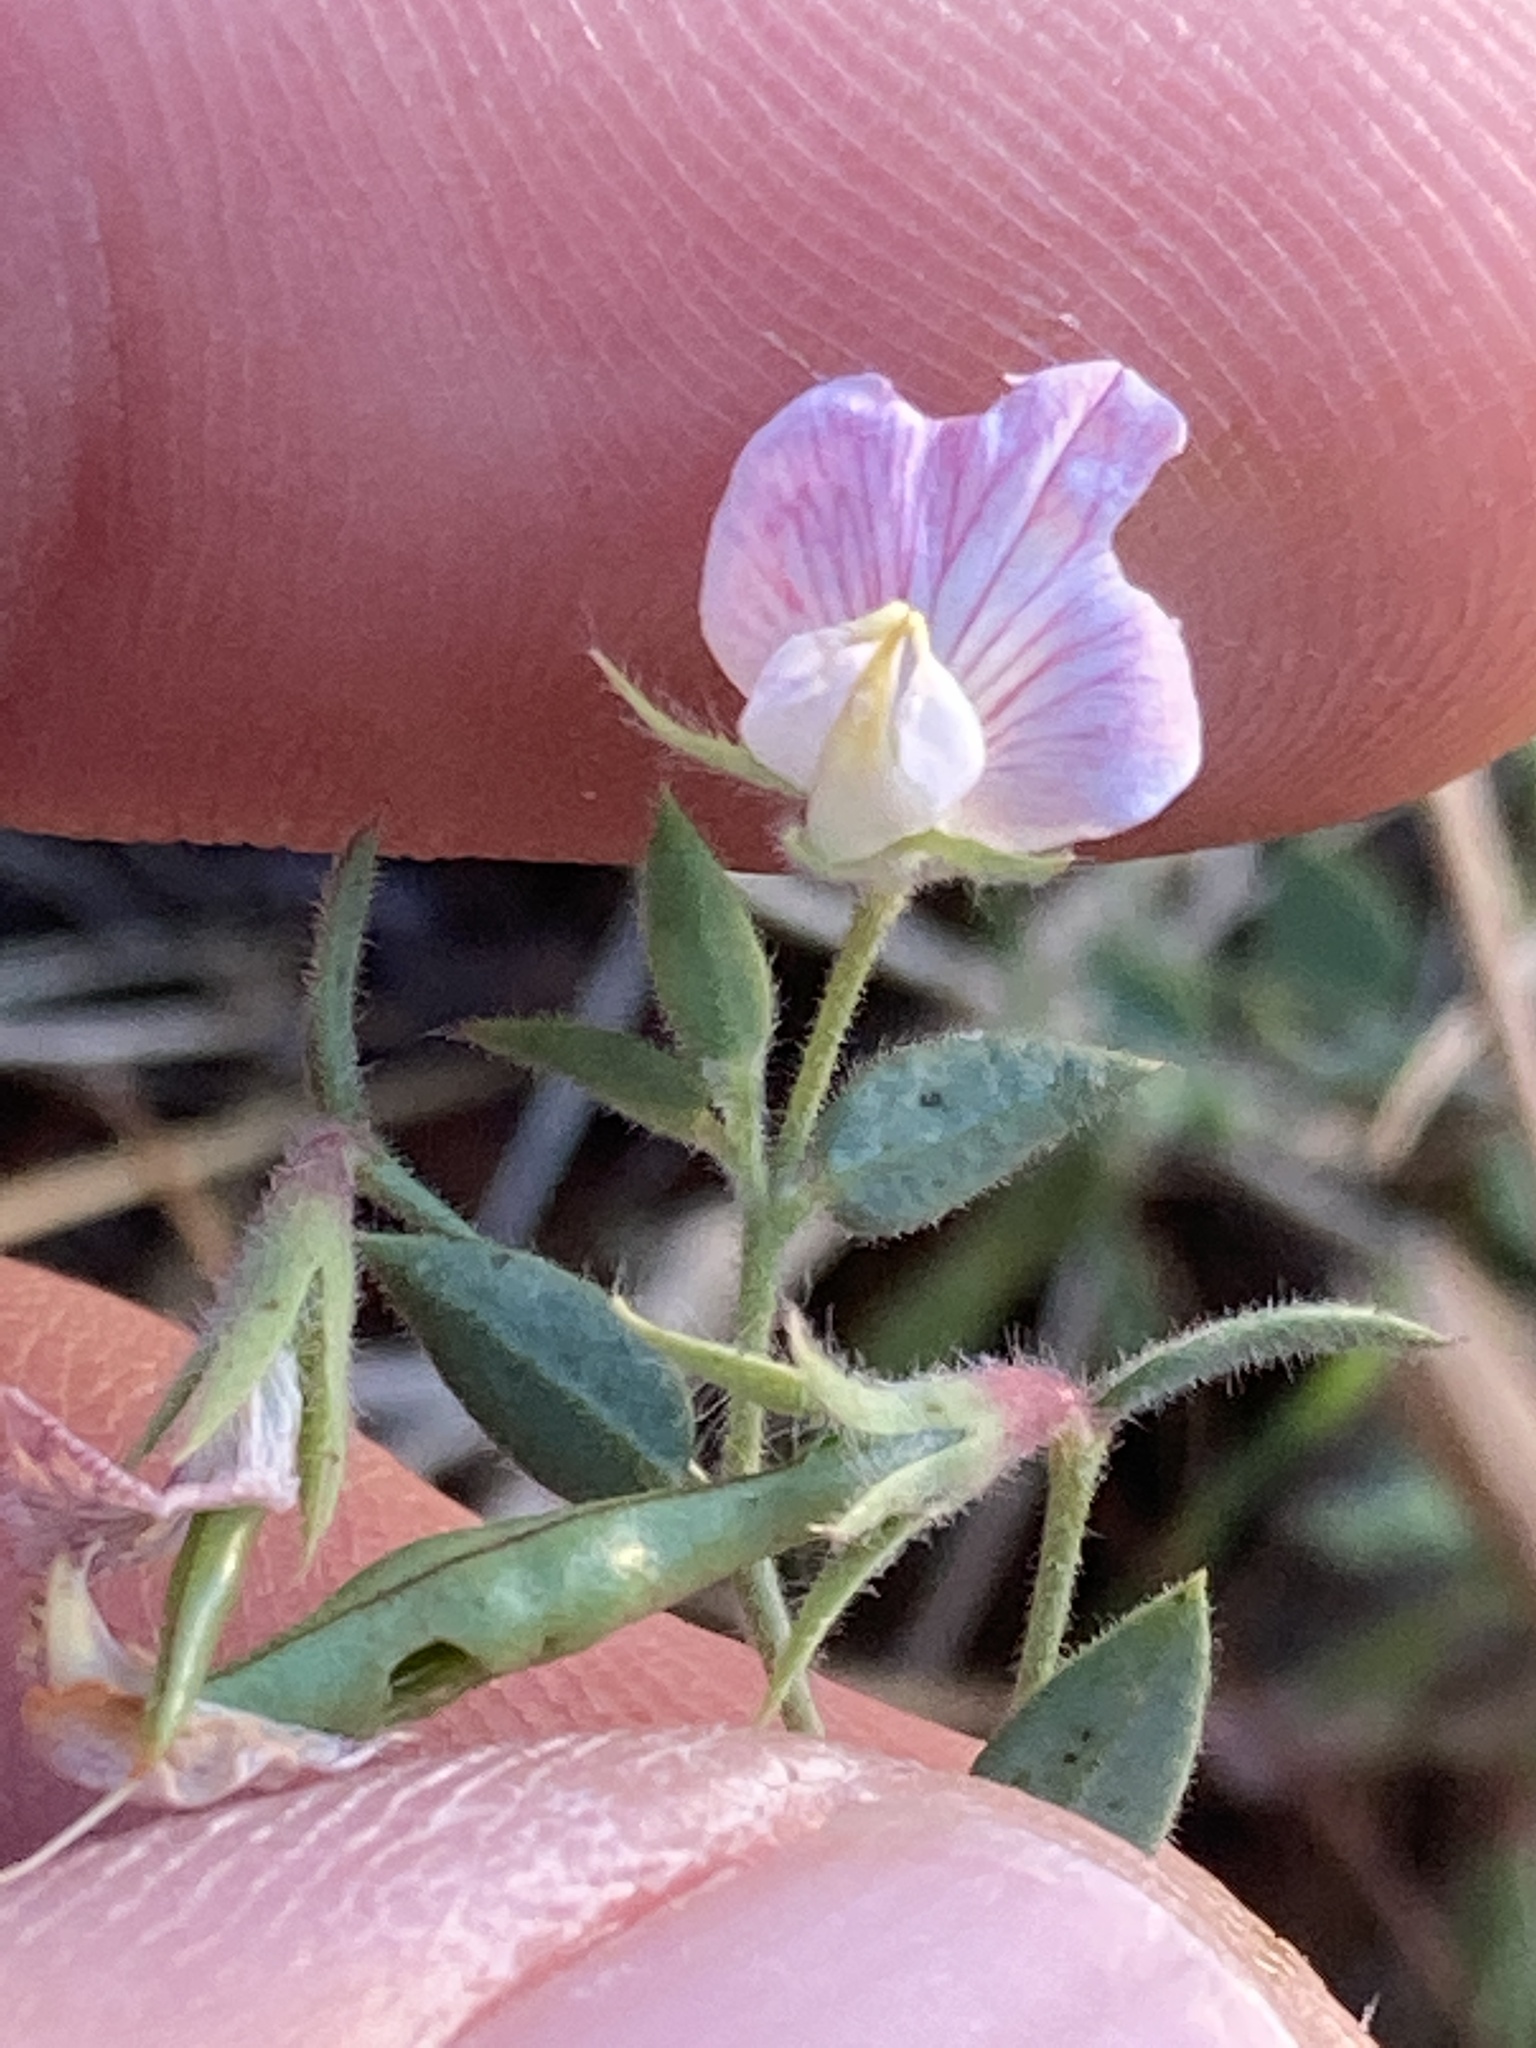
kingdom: Plantae
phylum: Tracheophyta
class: Magnoliopsida
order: Fabales
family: Fabaceae
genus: Acmispon
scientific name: Acmispon americanus
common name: American bird's-foot trefoil
